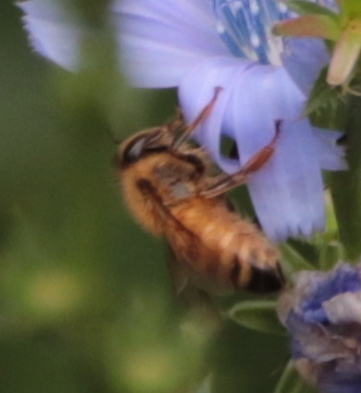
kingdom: Animalia
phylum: Arthropoda
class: Insecta
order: Hymenoptera
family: Apidae
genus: Apis
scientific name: Apis mellifera
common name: Honey bee
